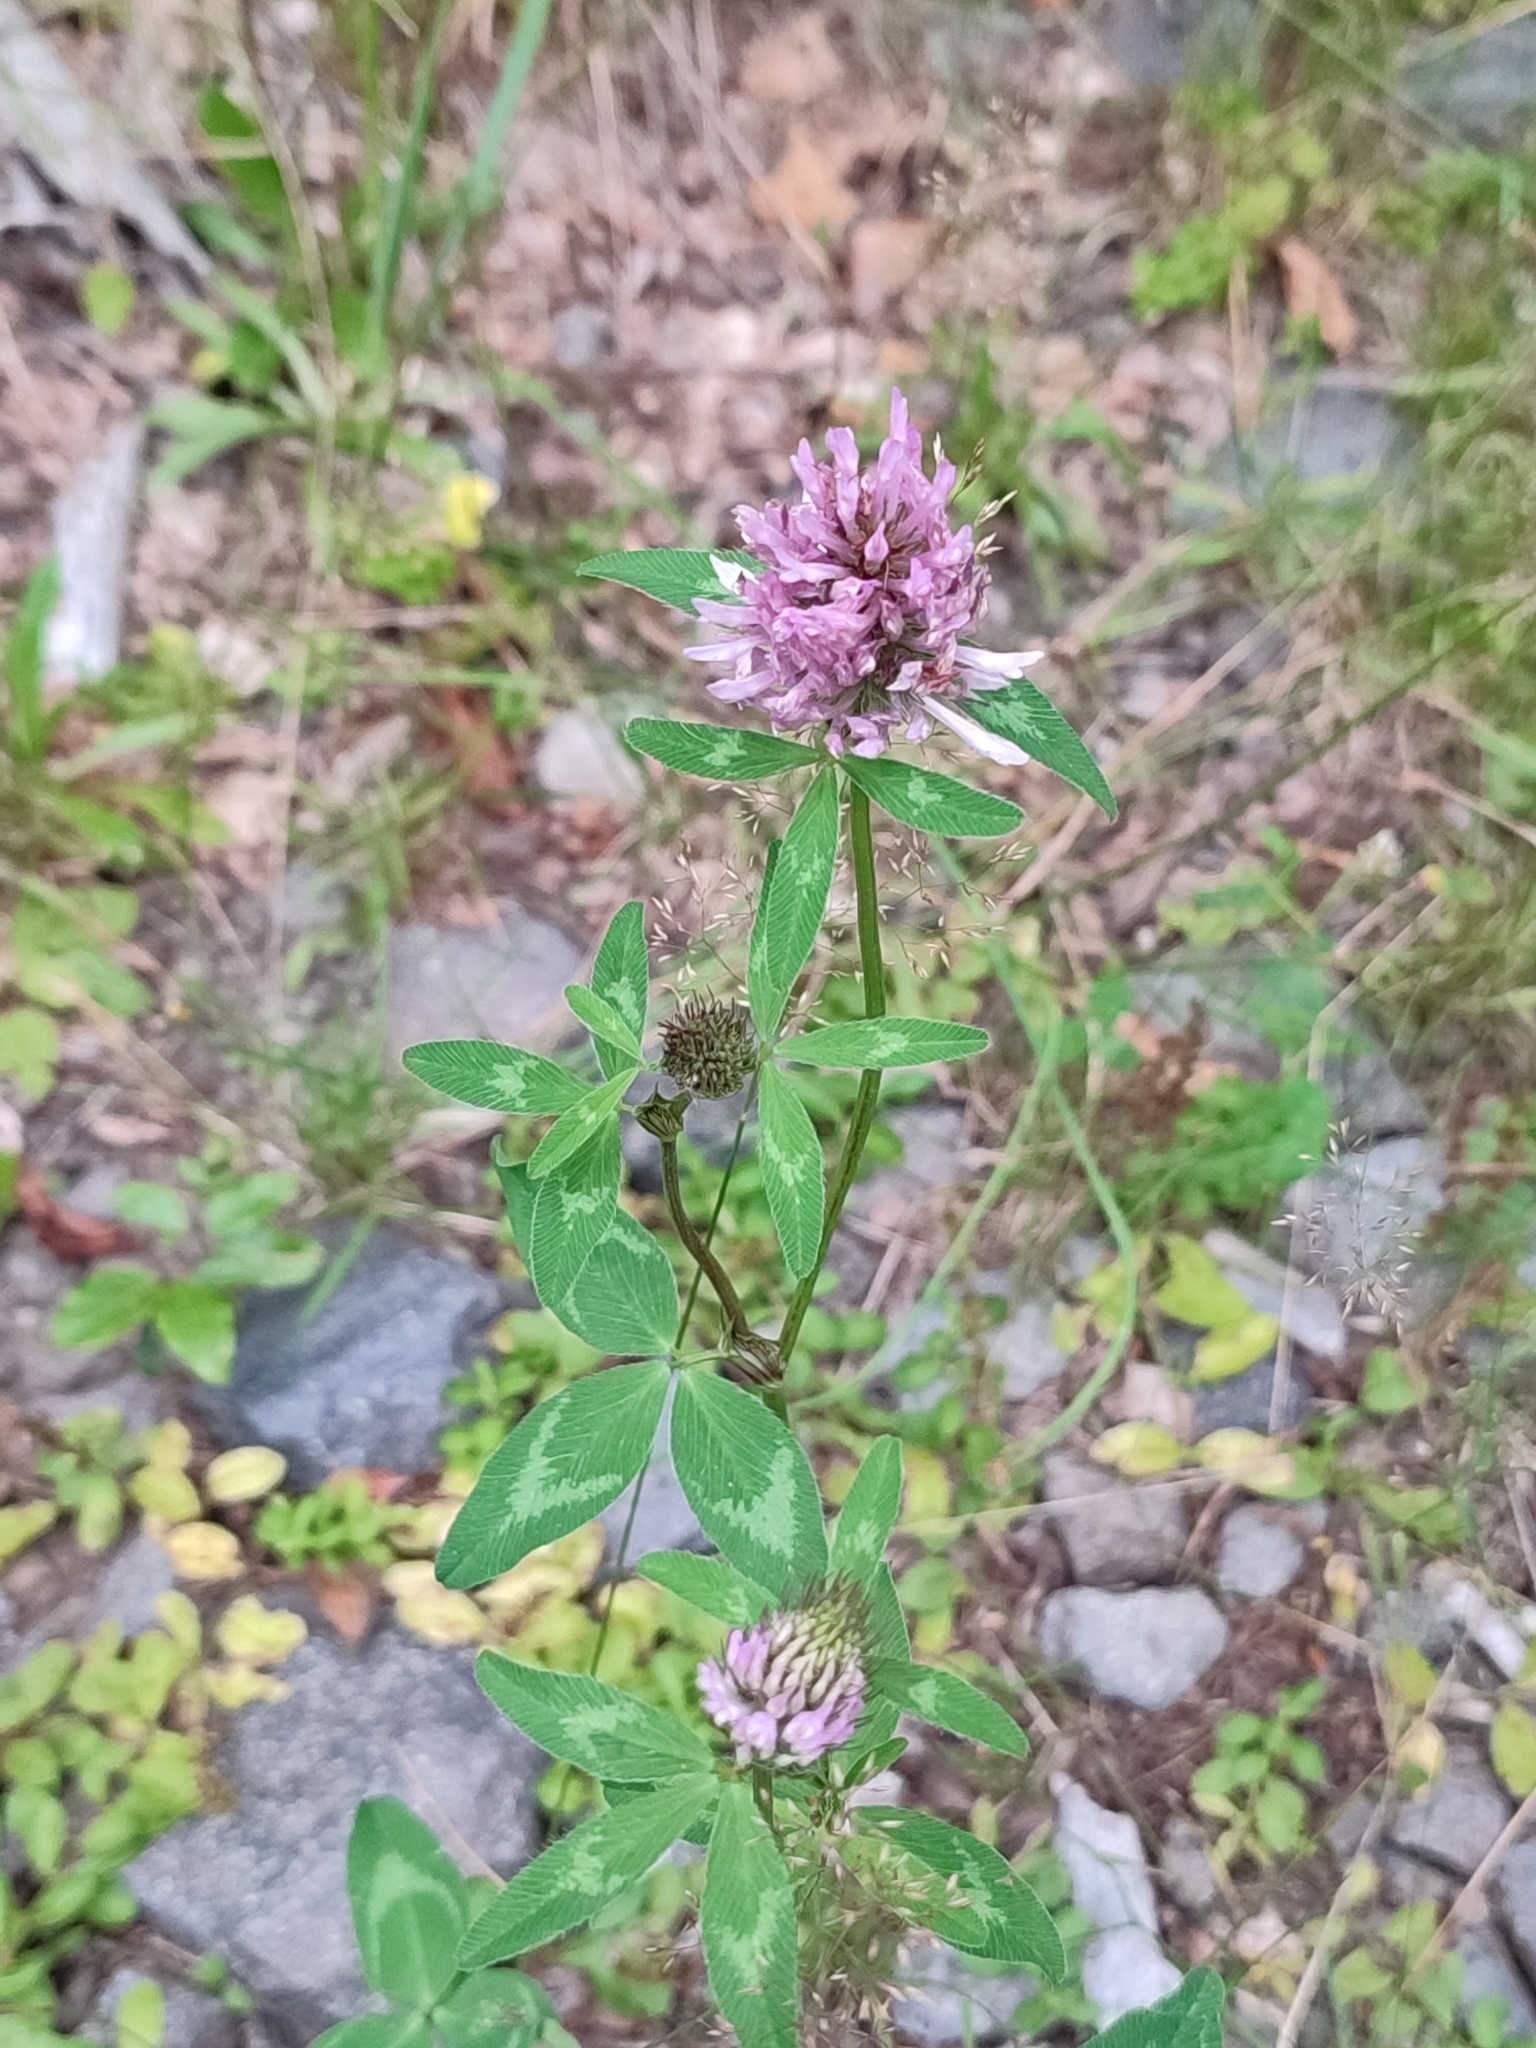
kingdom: Plantae
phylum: Tracheophyta
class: Magnoliopsida
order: Fabales
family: Fabaceae
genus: Trifolium
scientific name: Trifolium pratense
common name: Red clover
